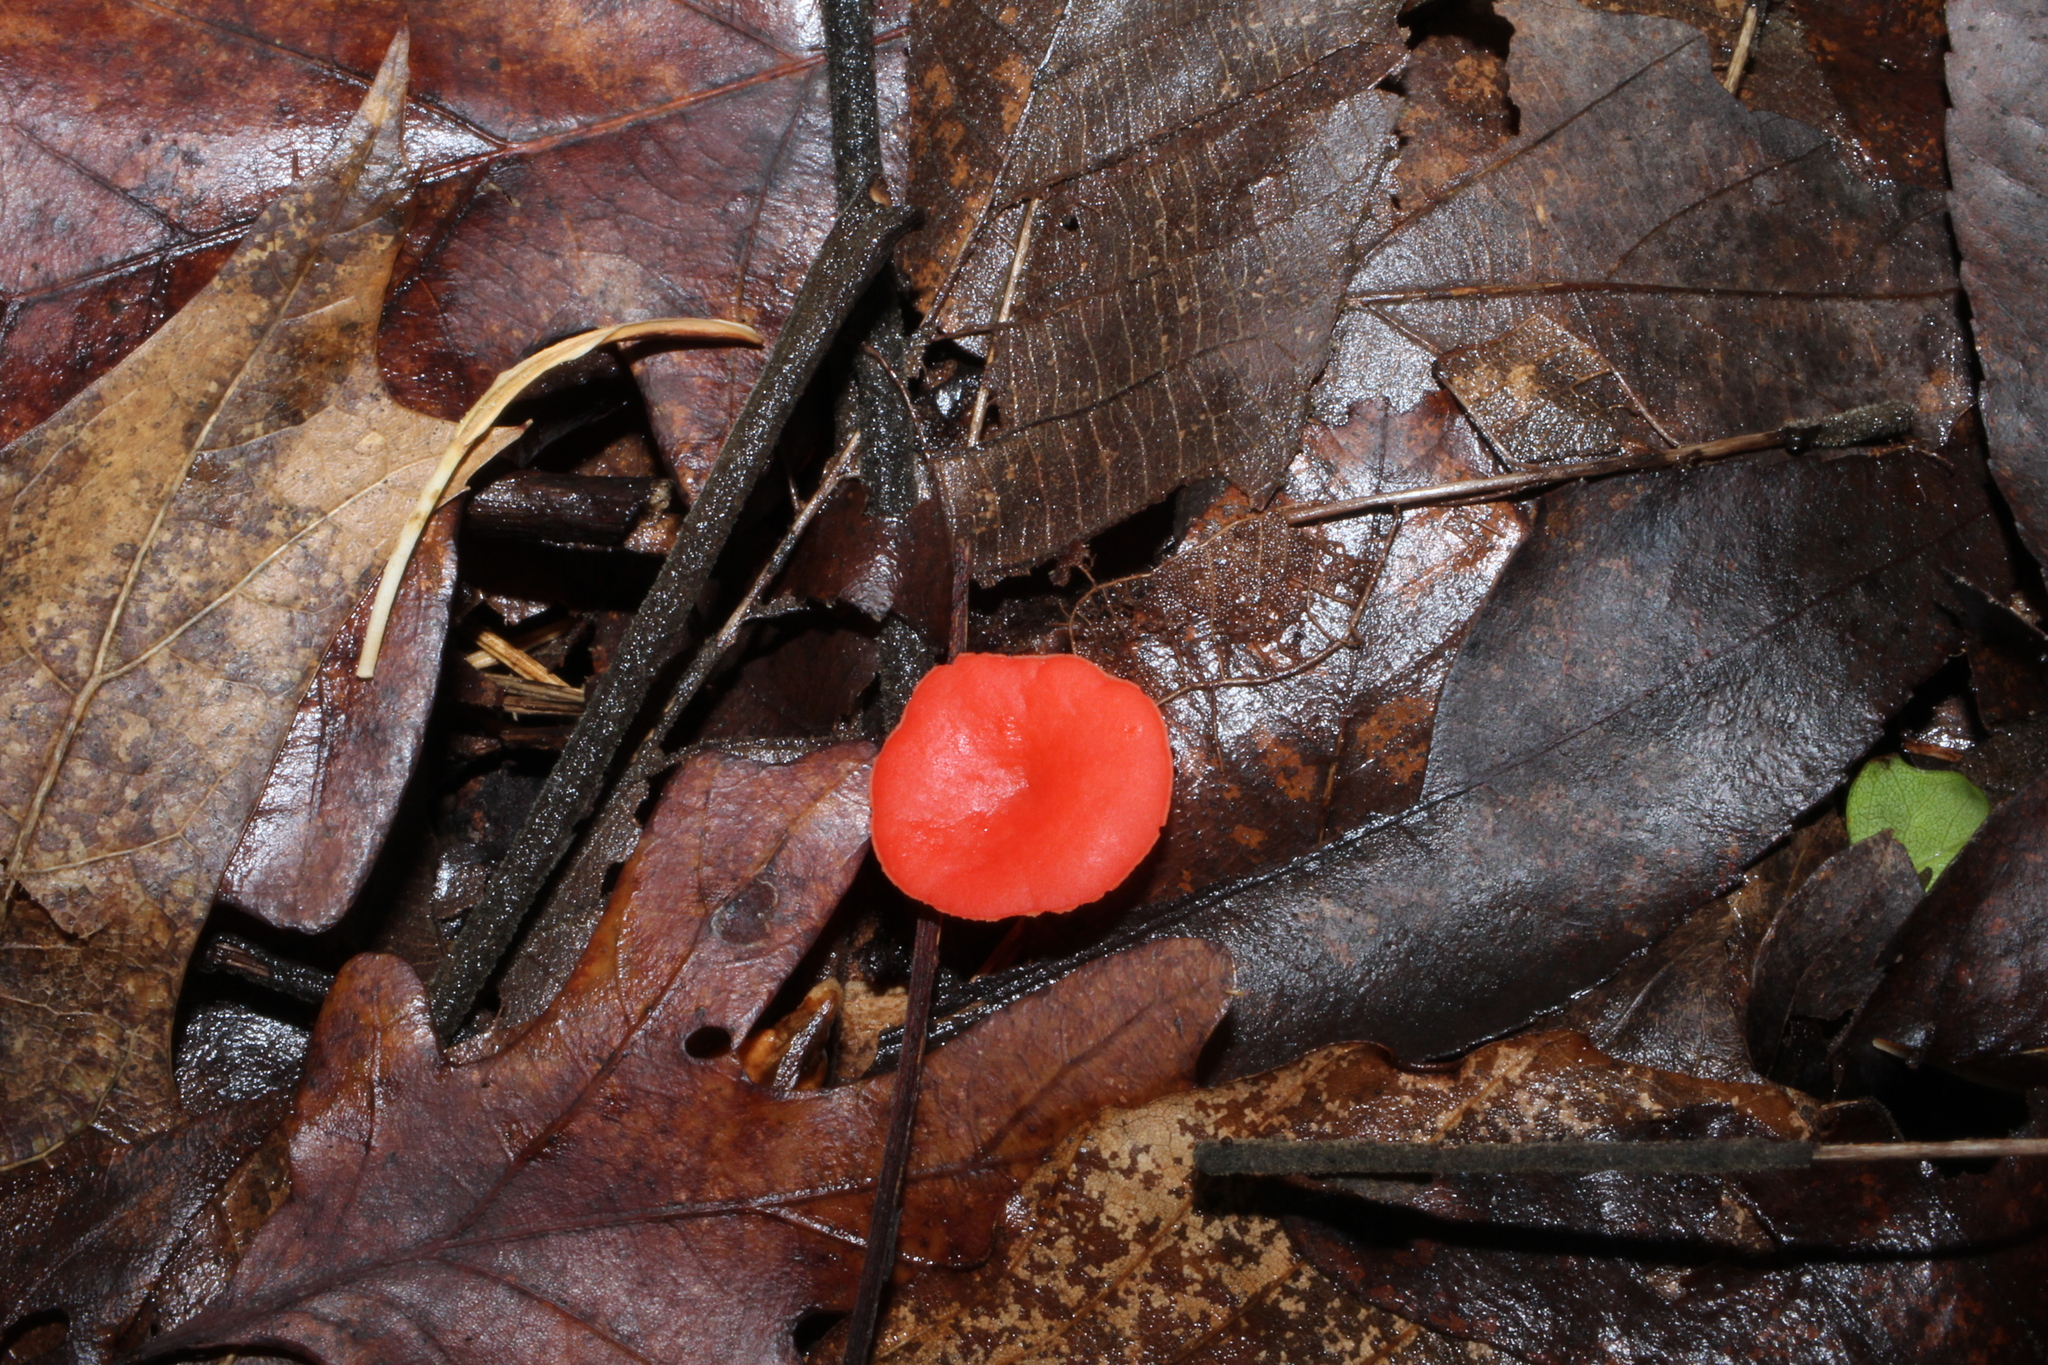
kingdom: Fungi
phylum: Ascomycota
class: Pezizomycetes
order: Pezizales
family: Sarcoscyphaceae
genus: Sarcoscypha
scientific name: Sarcoscypha occidentalis
